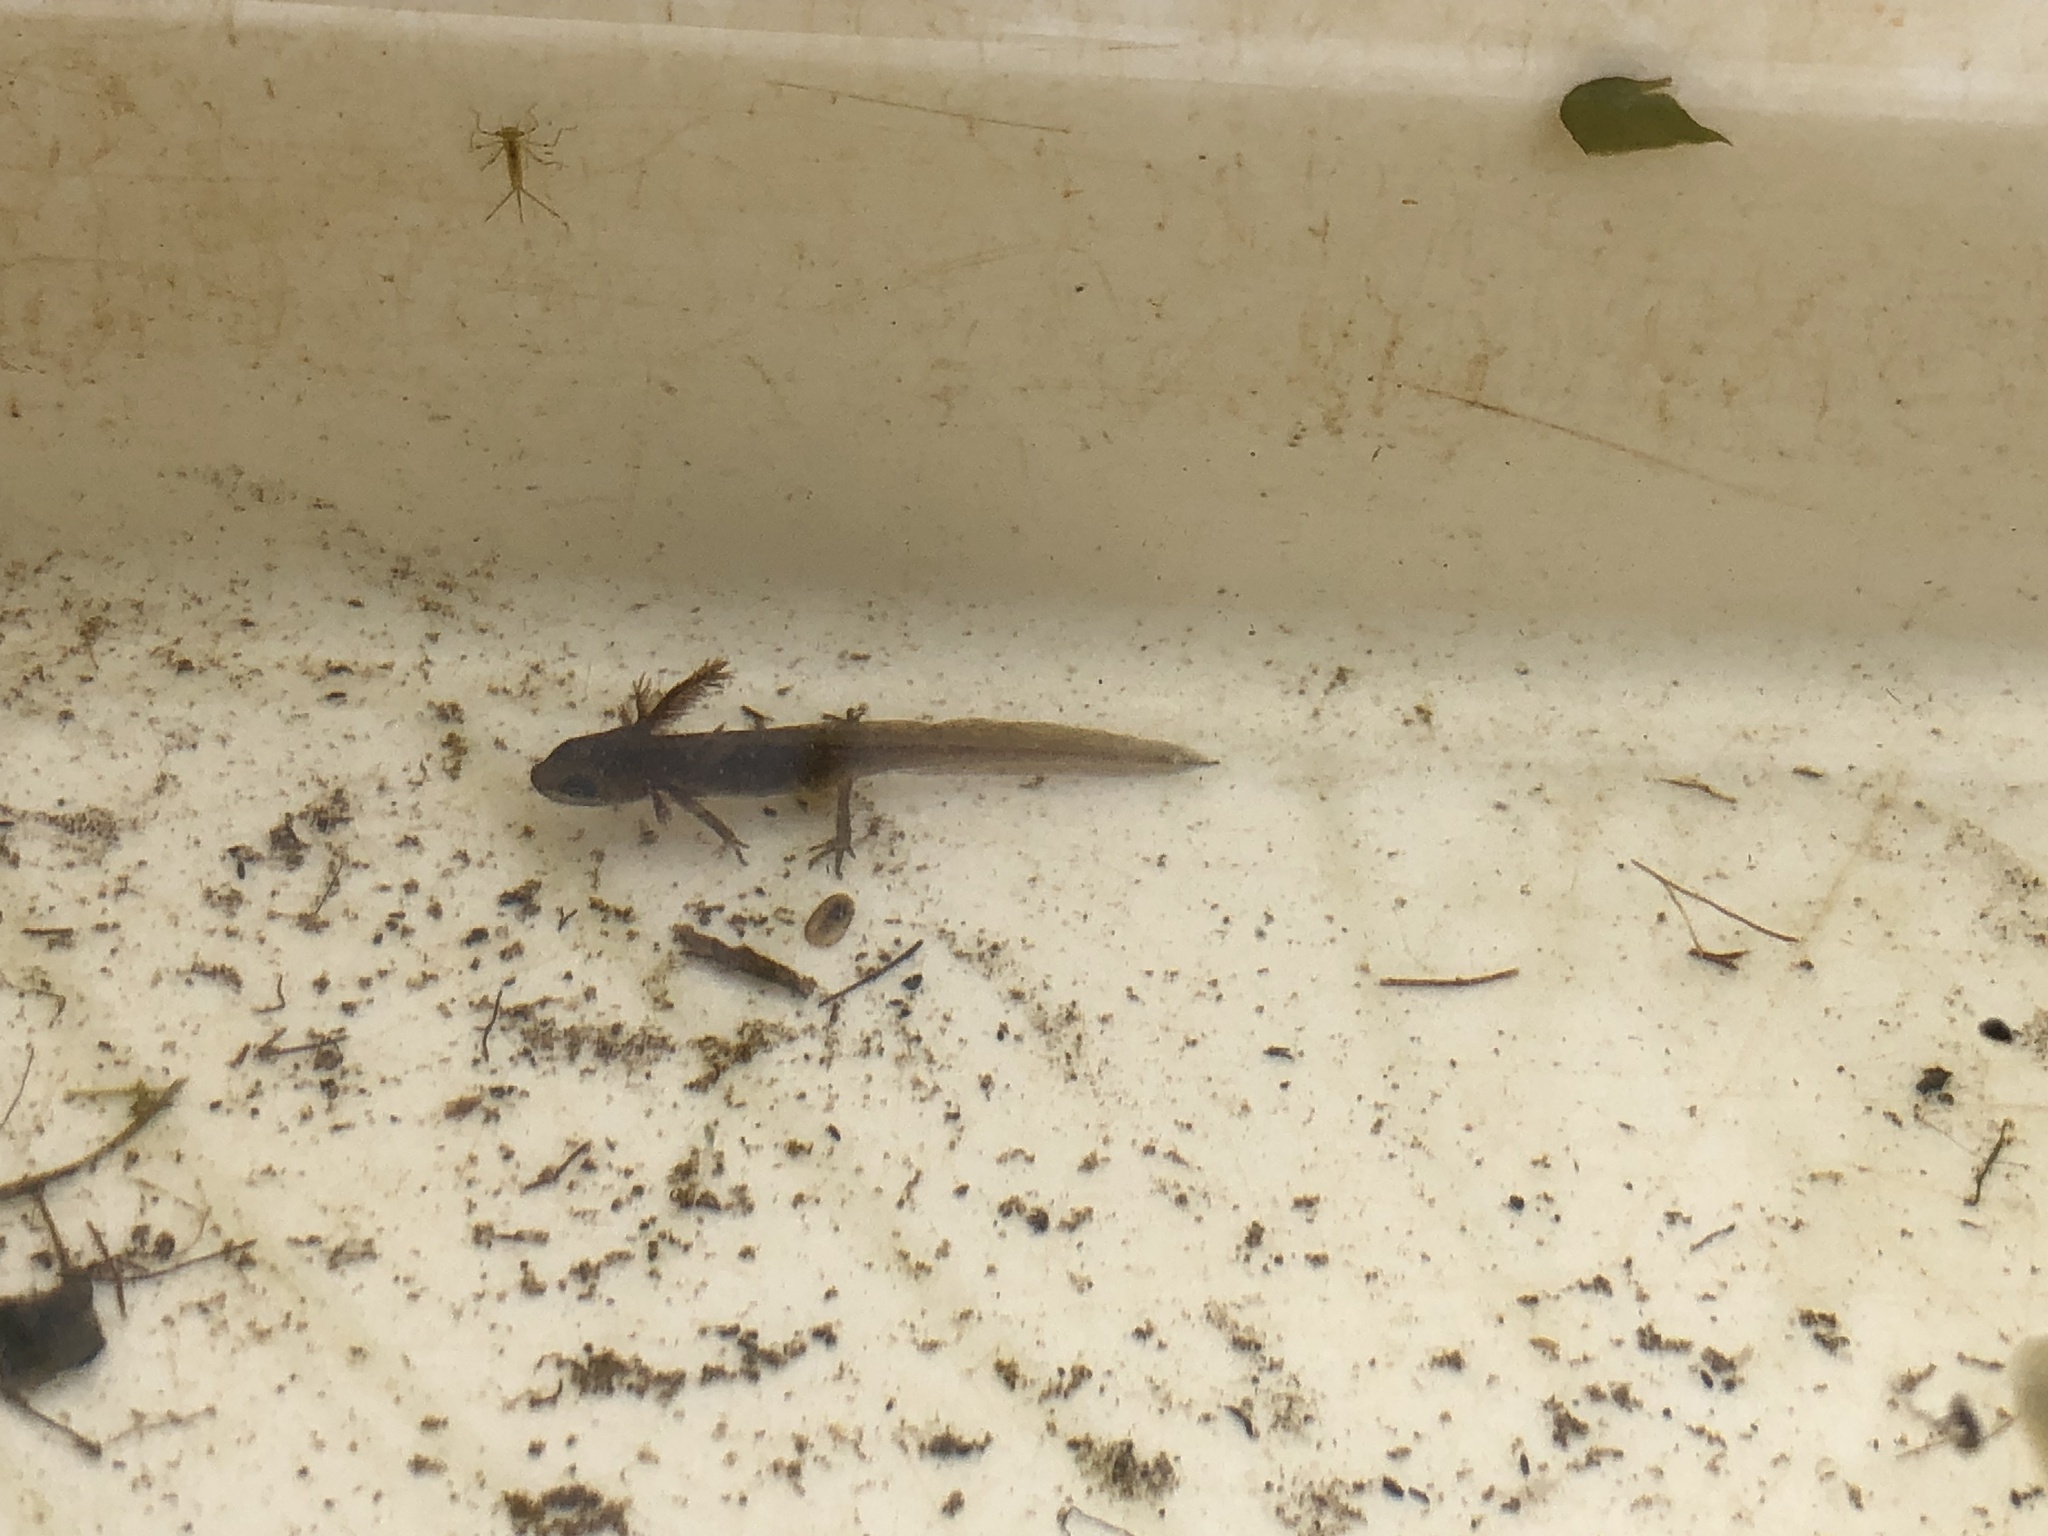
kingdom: Animalia
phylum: Chordata
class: Amphibia
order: Caudata
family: Salamandridae
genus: Lissotriton
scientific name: Lissotriton vulgaris
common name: Smooth newt
